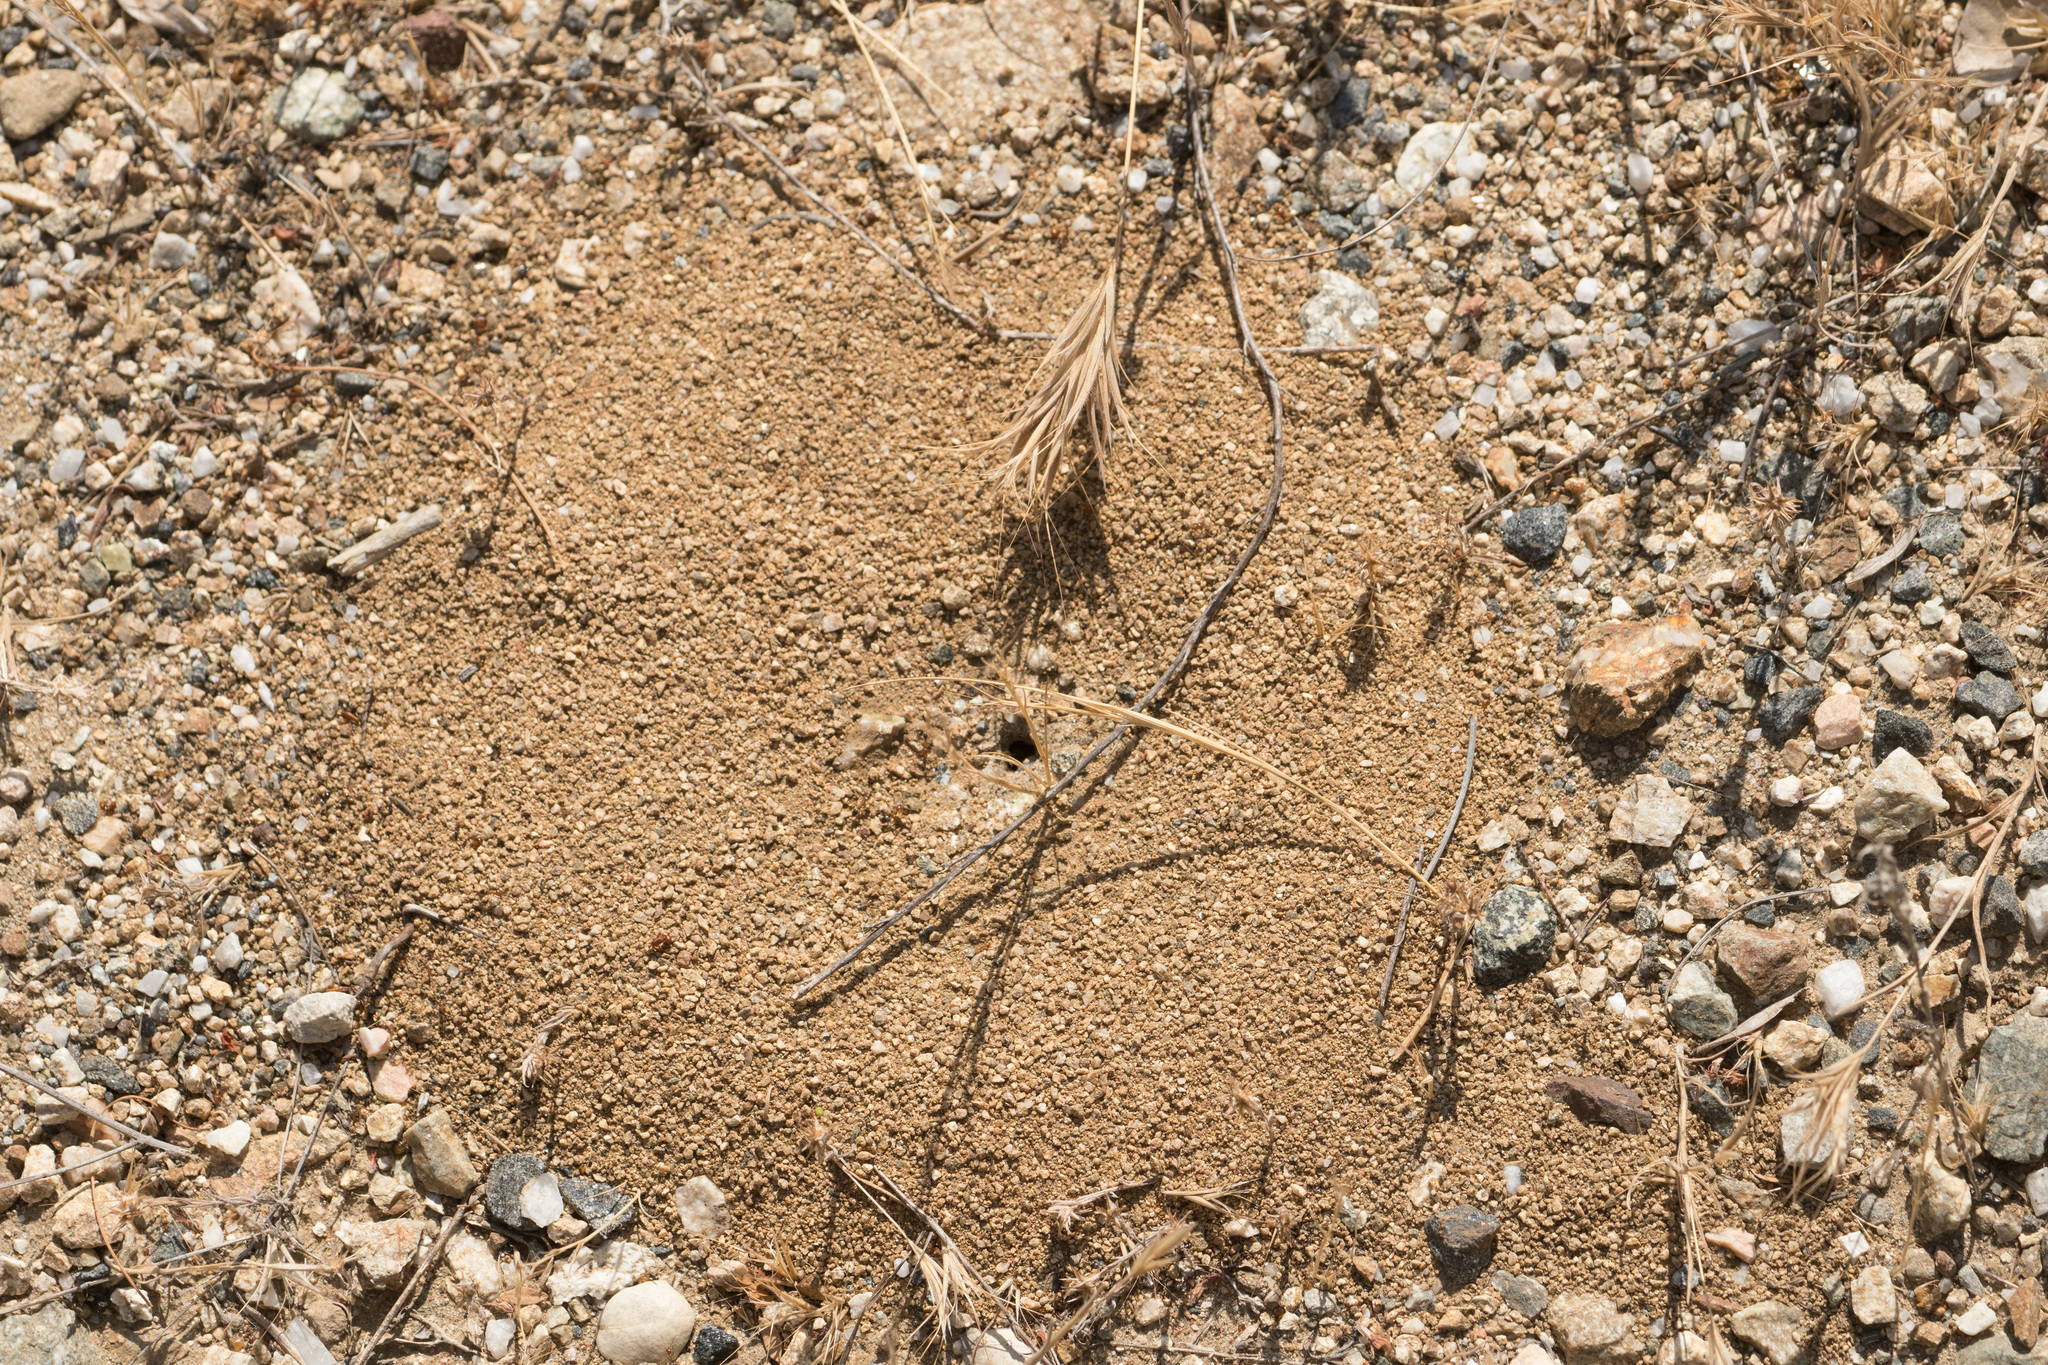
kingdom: Animalia
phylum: Arthropoda
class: Insecta
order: Hymenoptera
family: Formicidae
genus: Dorymyrmex
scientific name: Dorymyrmex bicolor
